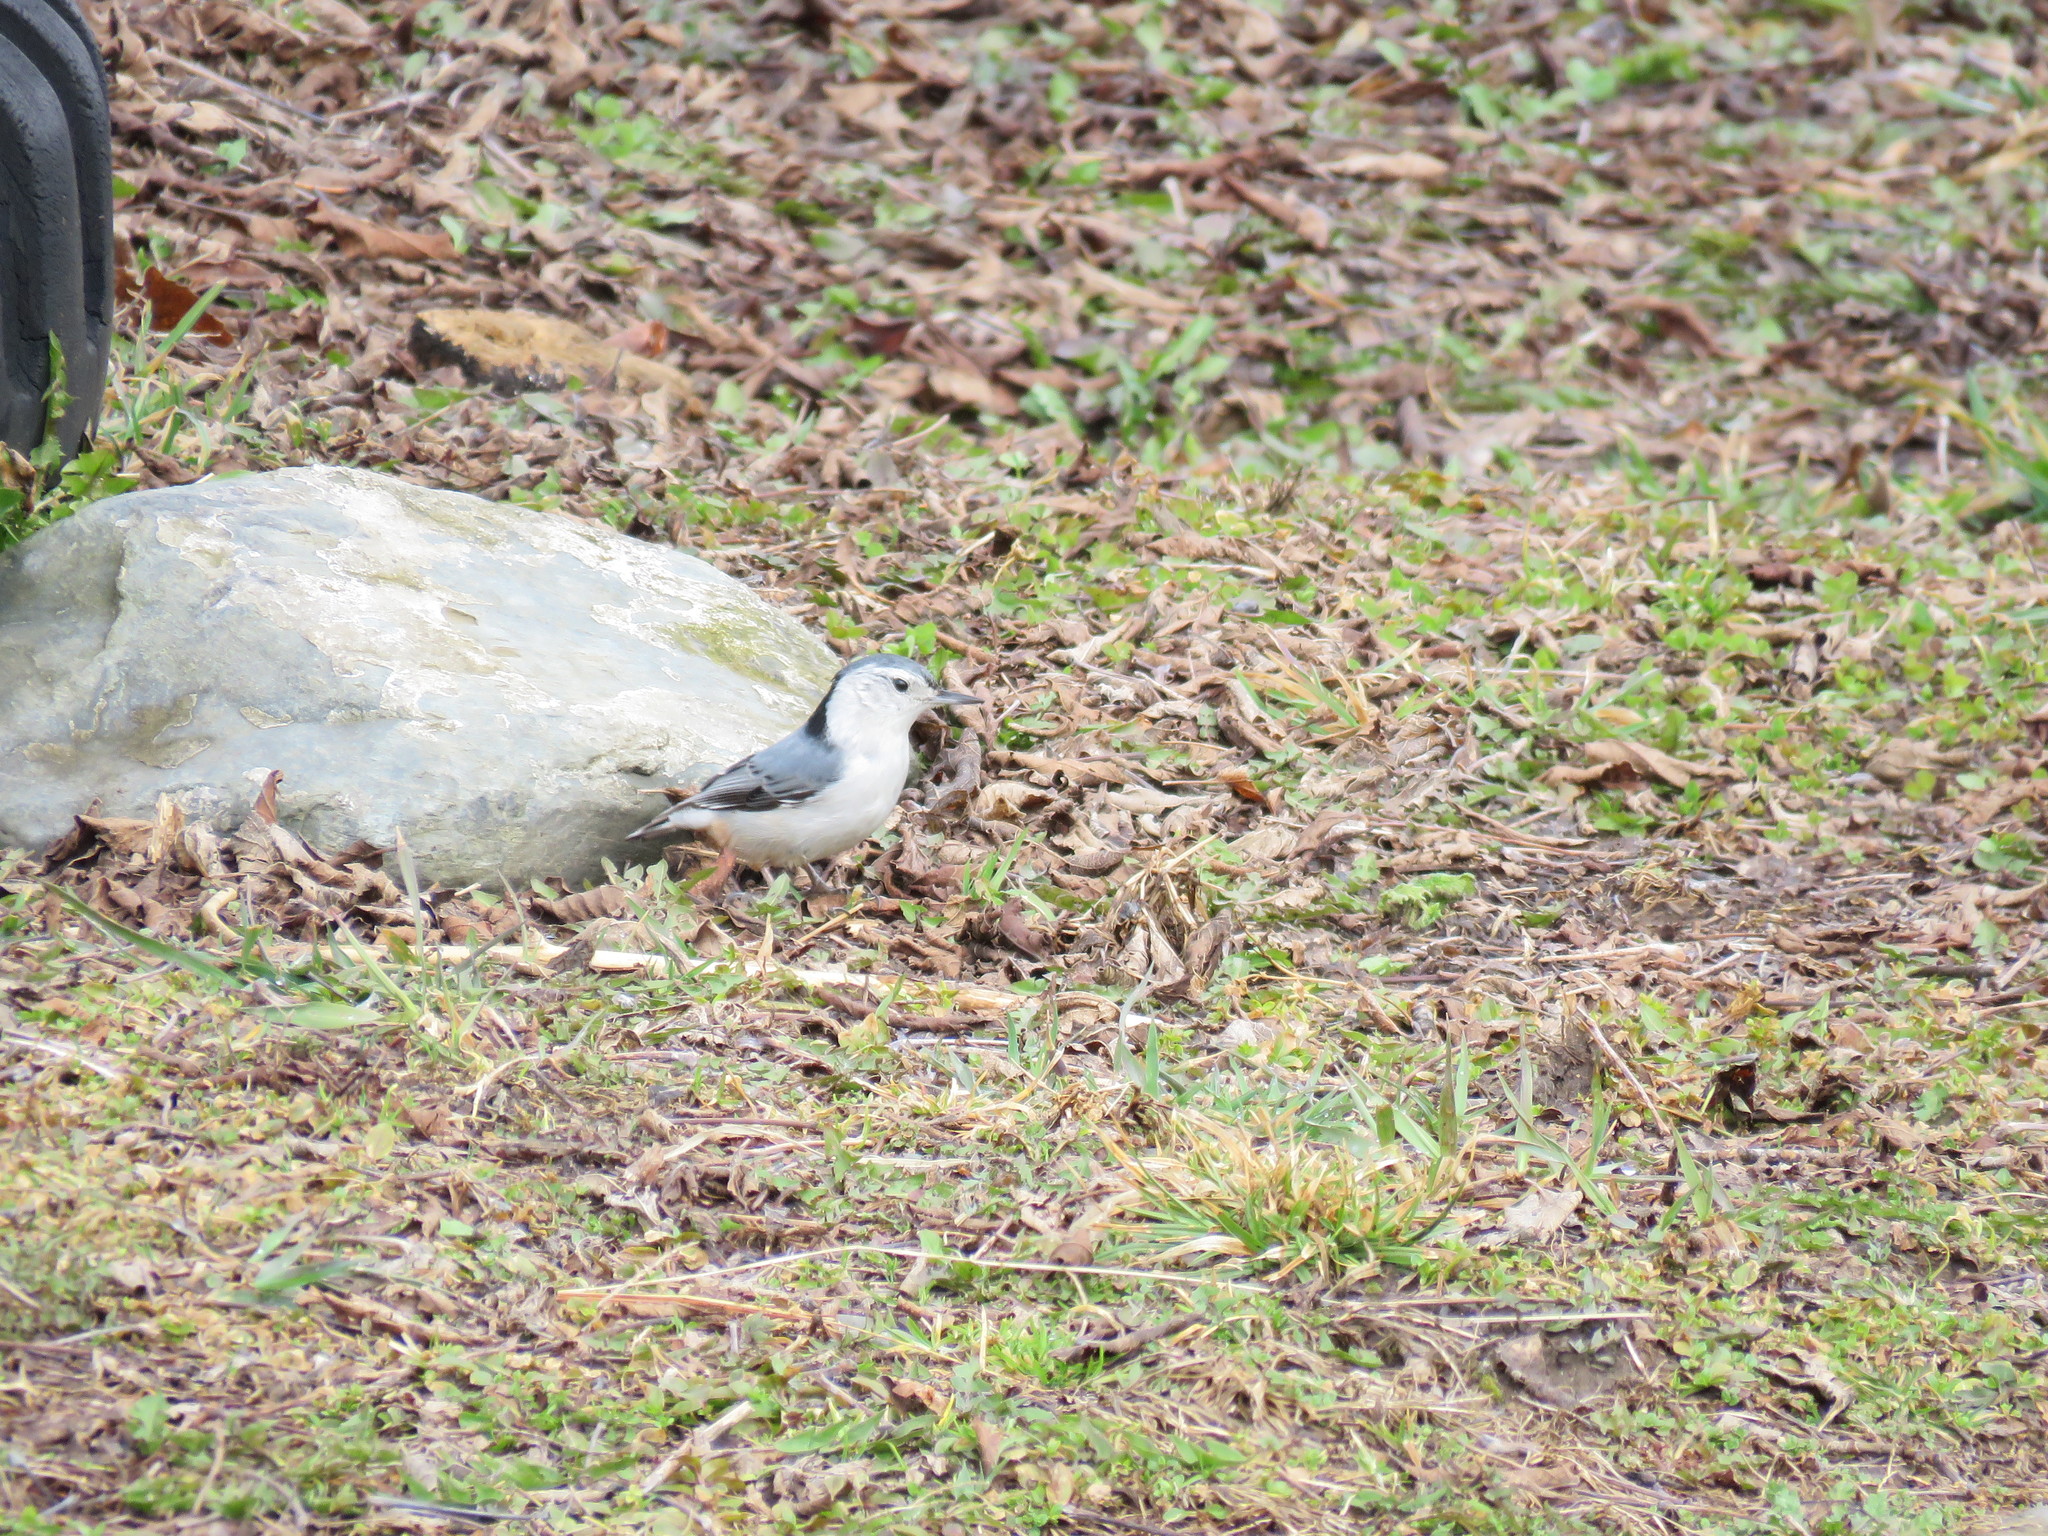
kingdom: Animalia
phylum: Chordata
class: Aves
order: Passeriformes
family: Sittidae
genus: Sitta
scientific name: Sitta carolinensis
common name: White-breasted nuthatch
